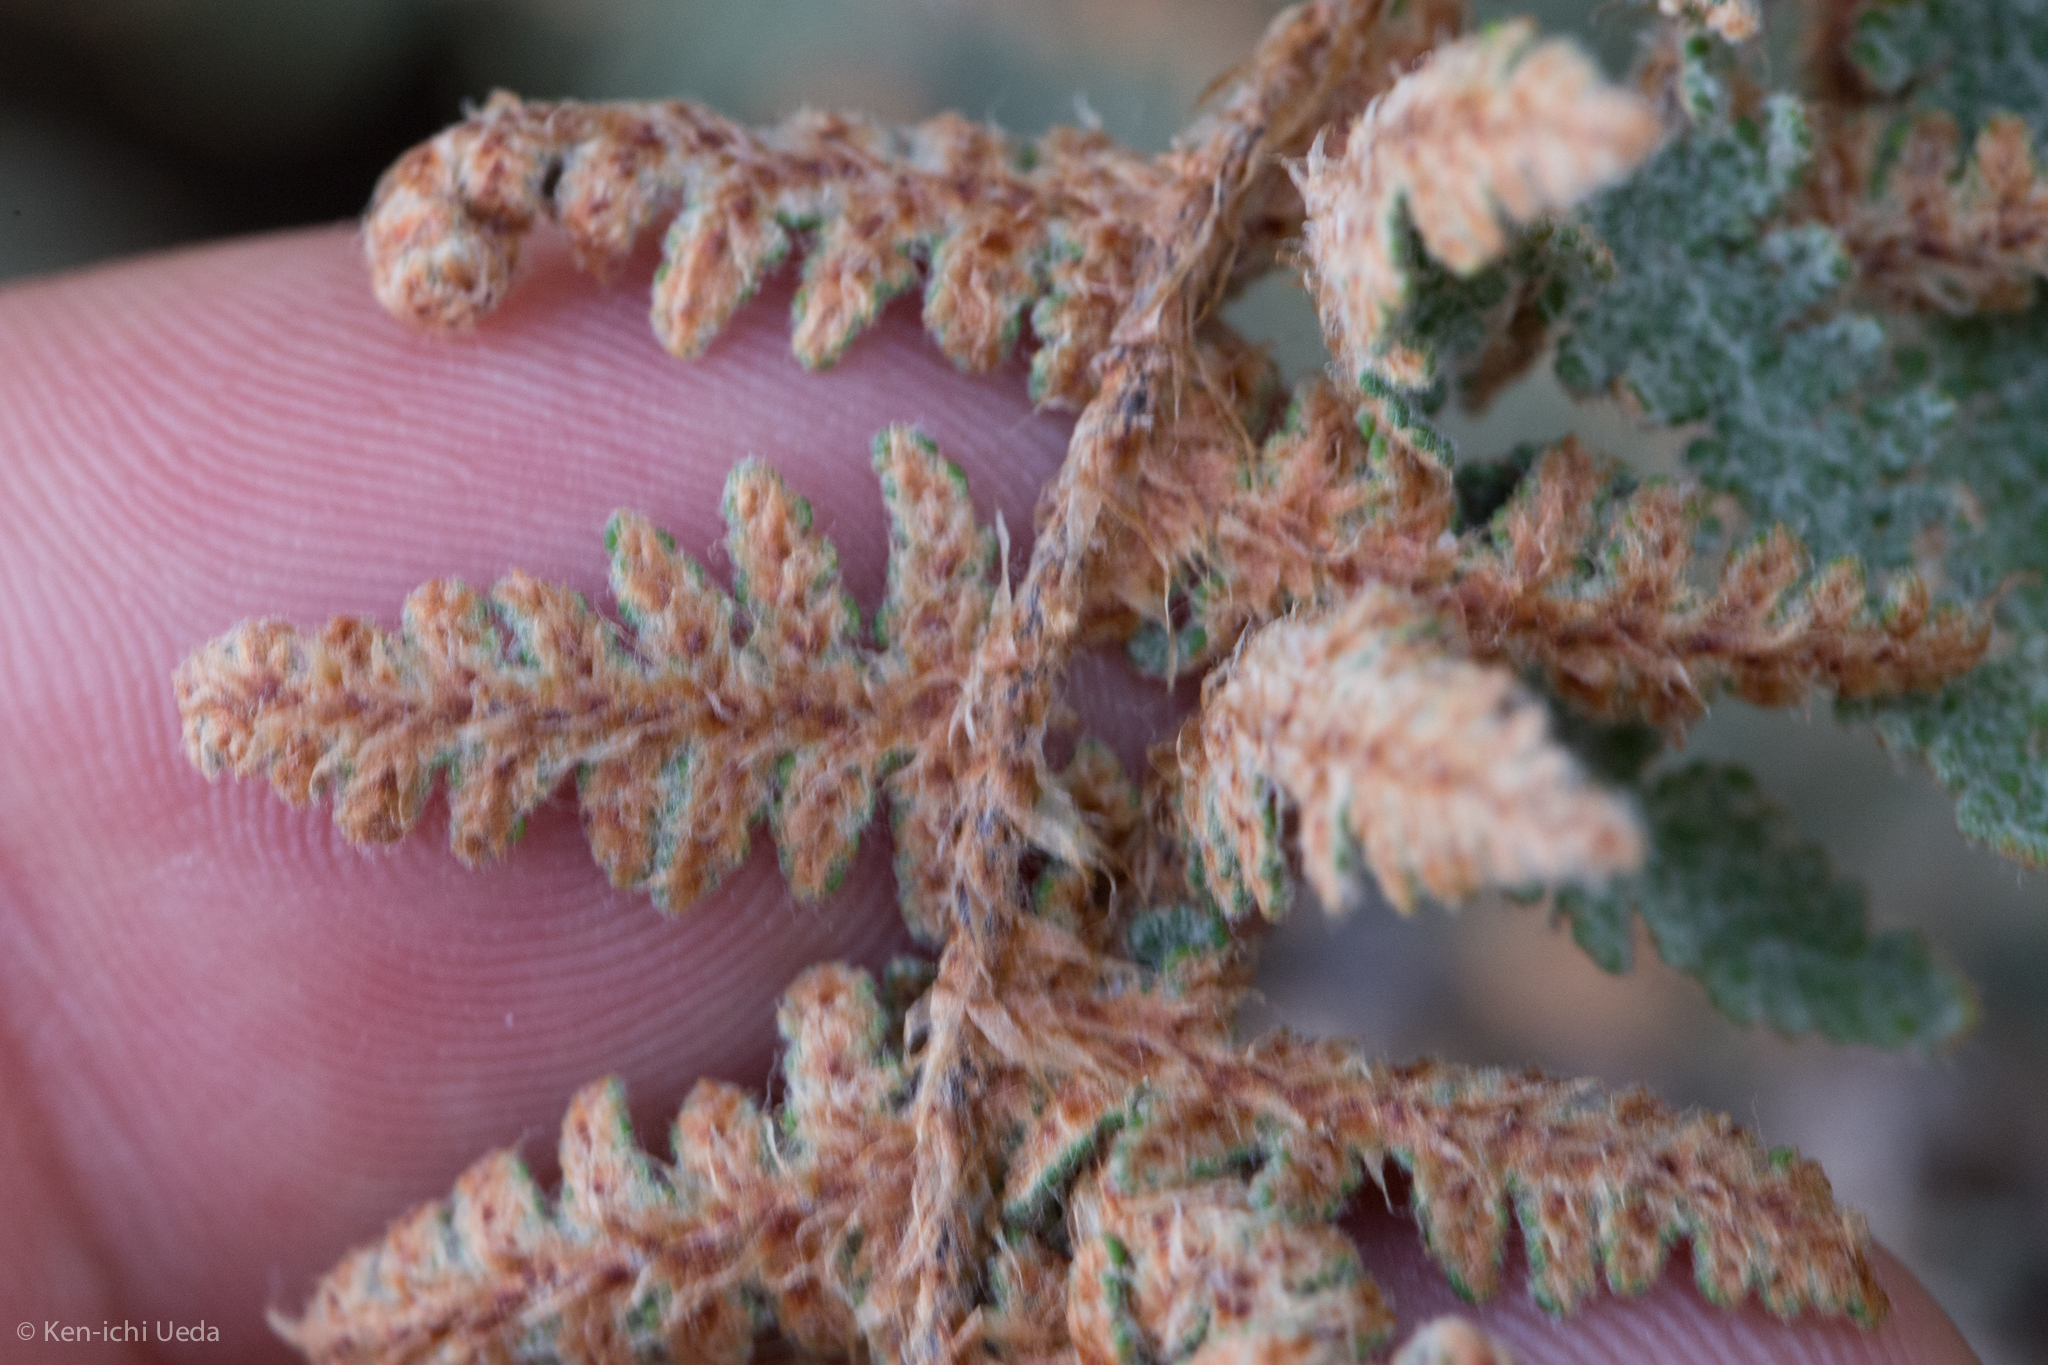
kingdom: Plantae
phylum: Tracheophyta
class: Polypodiopsida
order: Polypodiales
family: Pteridaceae
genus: Myriopteris
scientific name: Myriopteris lindheimeri
